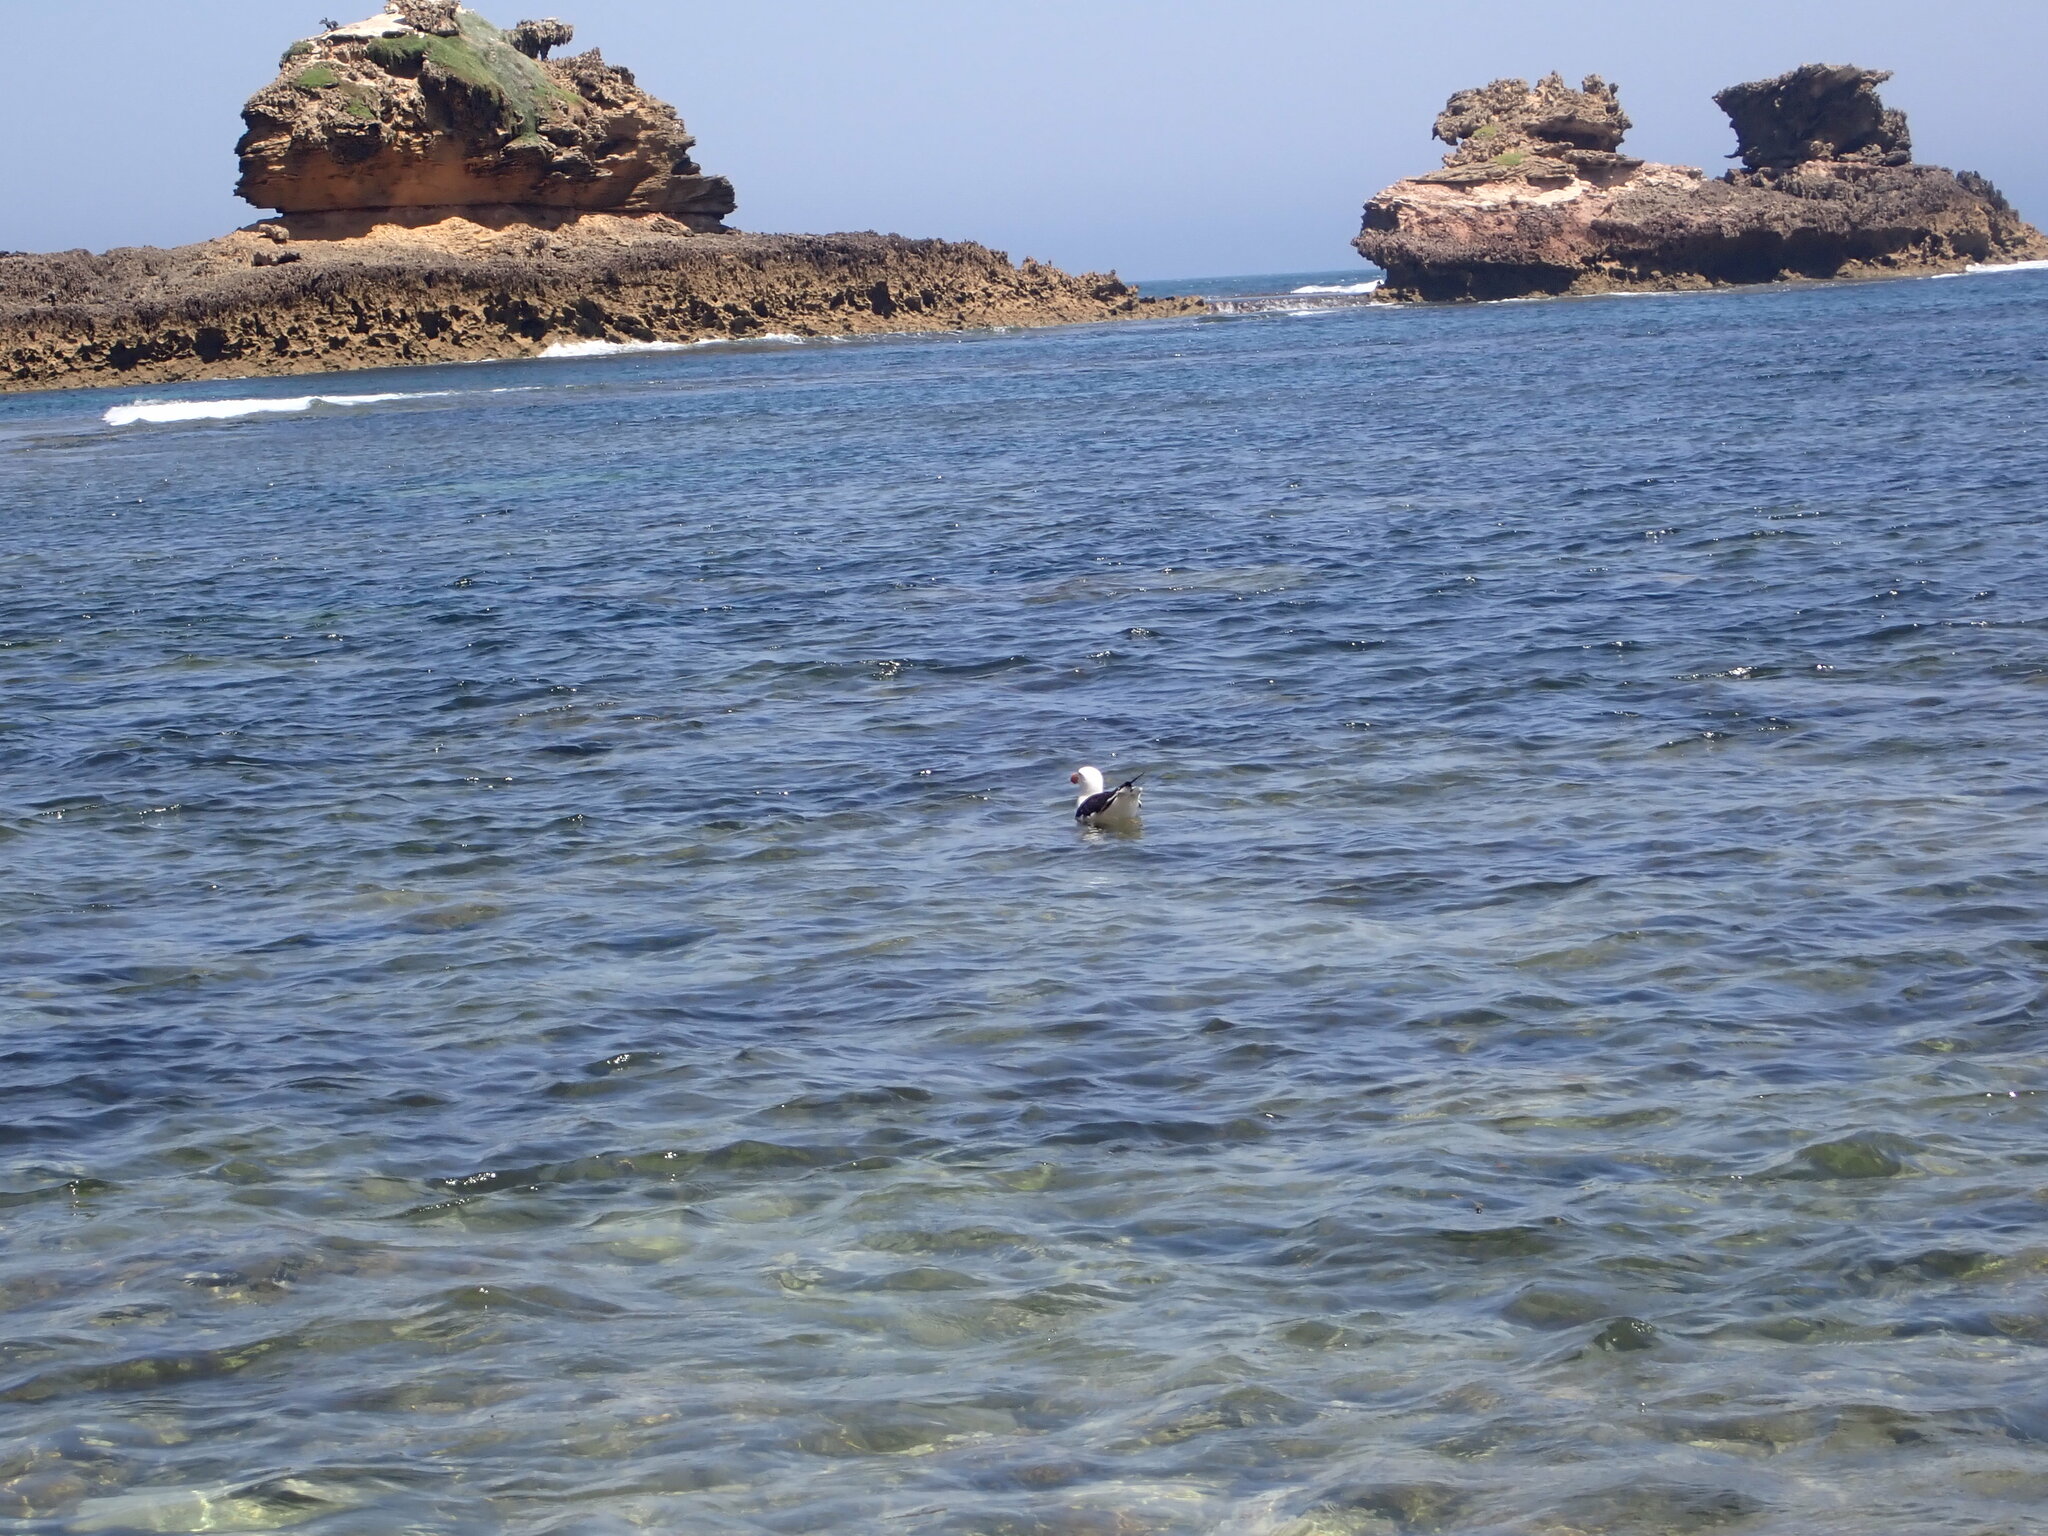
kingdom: Animalia
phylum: Chordata
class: Aves
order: Charadriiformes
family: Laridae
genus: Larus
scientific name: Larus pacificus
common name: Pacific gull
